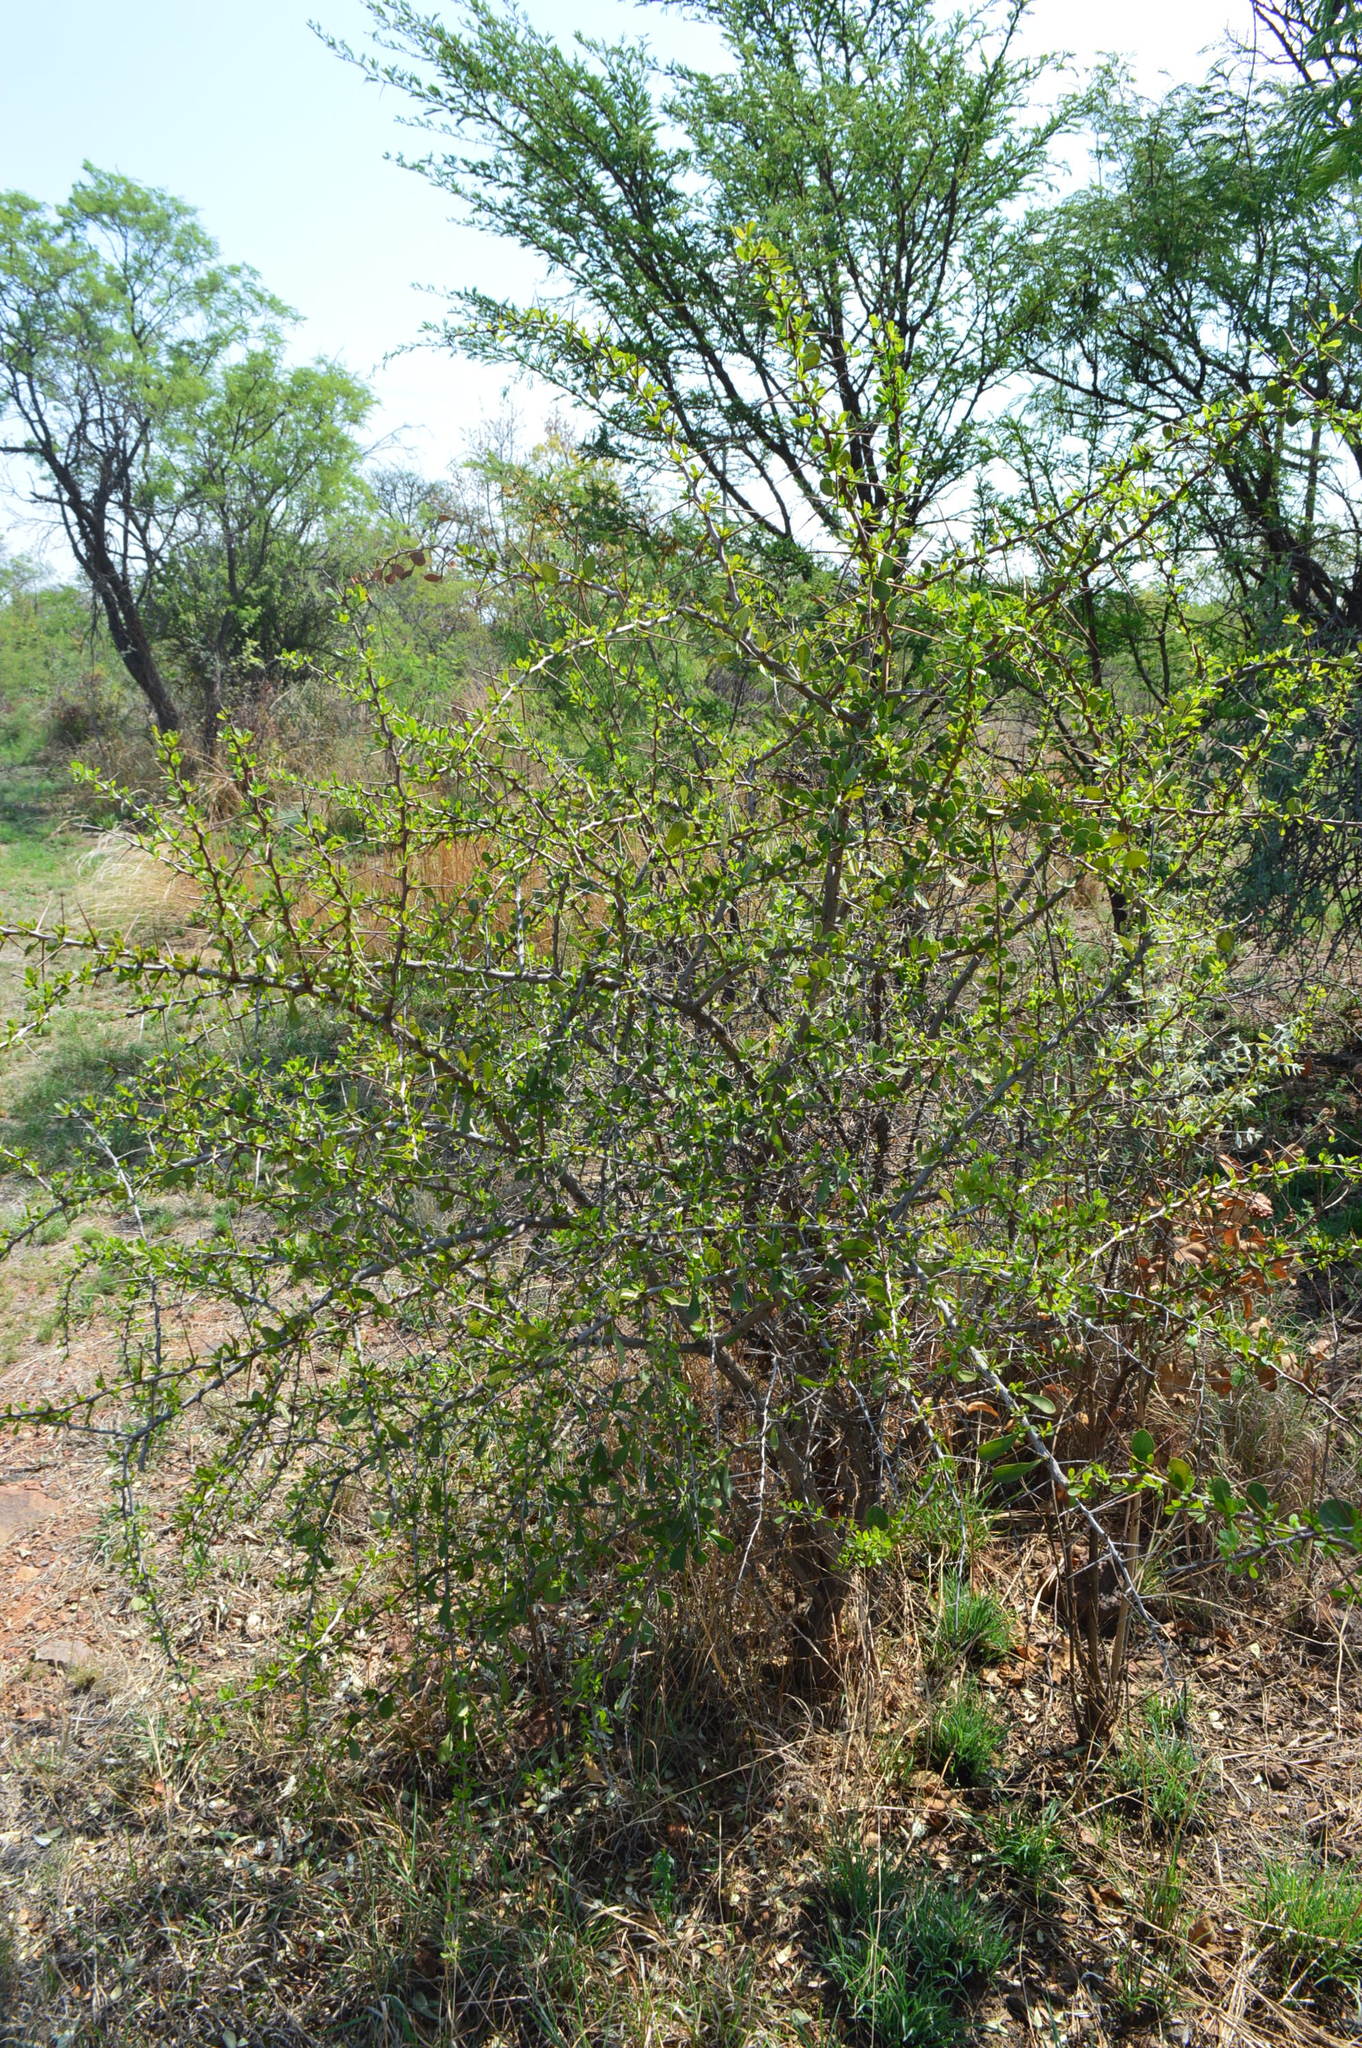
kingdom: Plantae
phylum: Tracheophyta
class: Magnoliopsida
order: Celastrales
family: Celastraceae
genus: Gymnosporia
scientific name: Gymnosporia glaucophylla
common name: Blue spike-thorn
